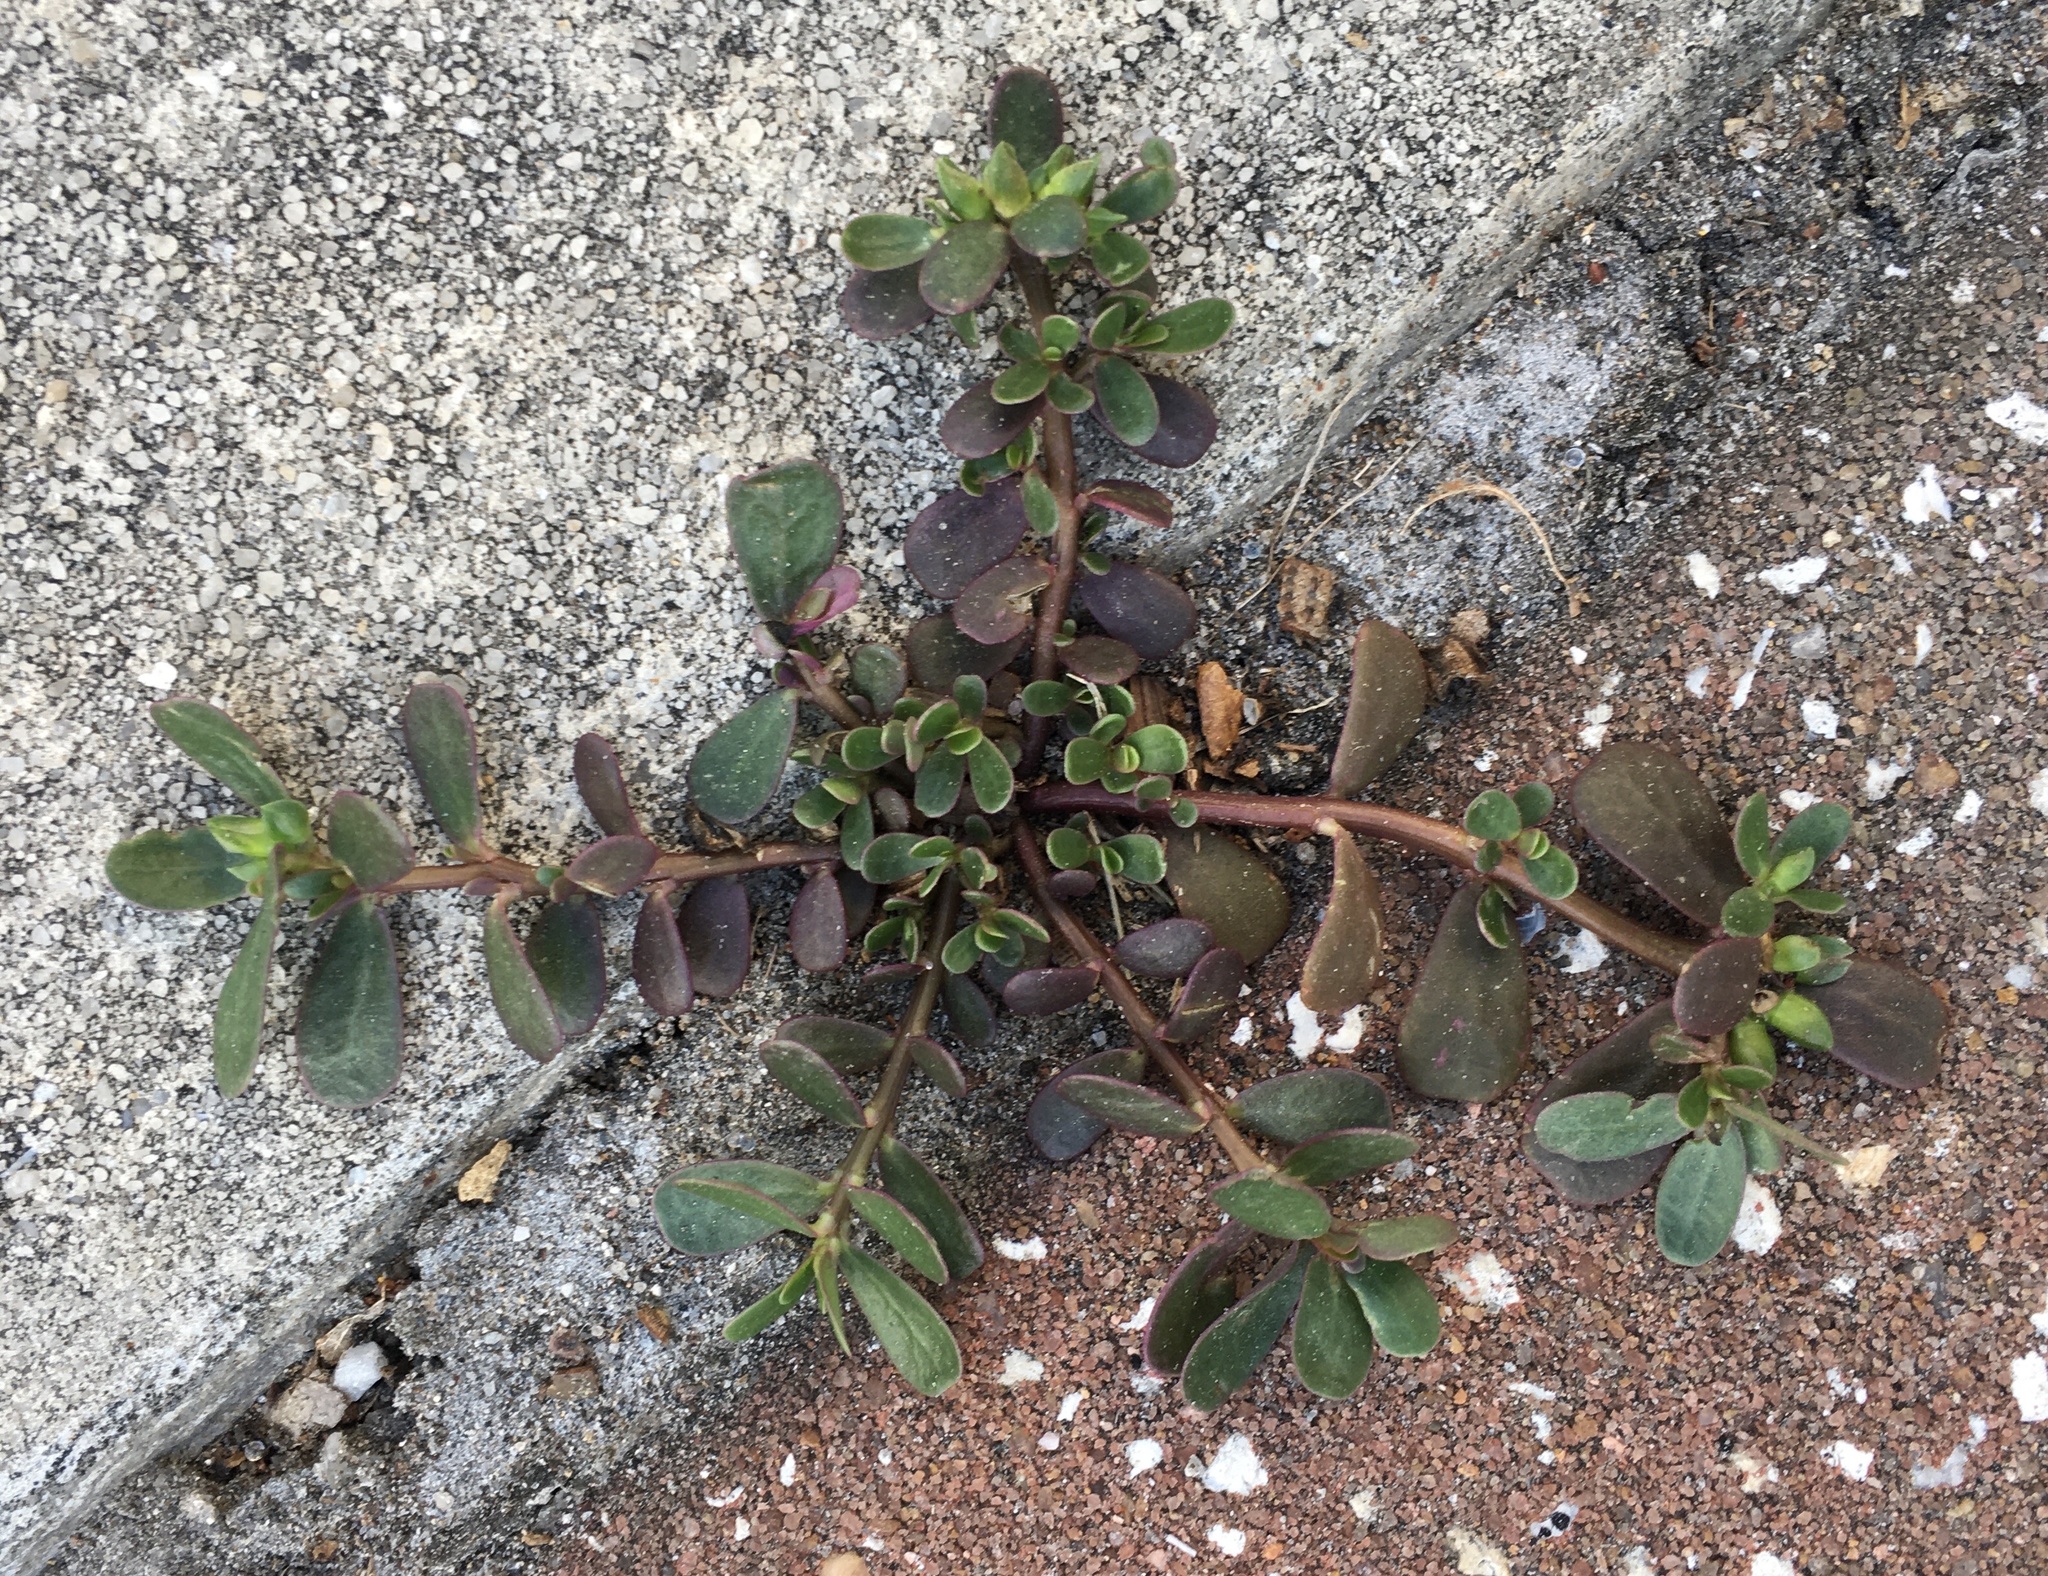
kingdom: Plantae
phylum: Tracheophyta
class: Magnoliopsida
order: Caryophyllales
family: Portulacaceae
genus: Portulaca
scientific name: Portulaca oleracea
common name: Common purslane
